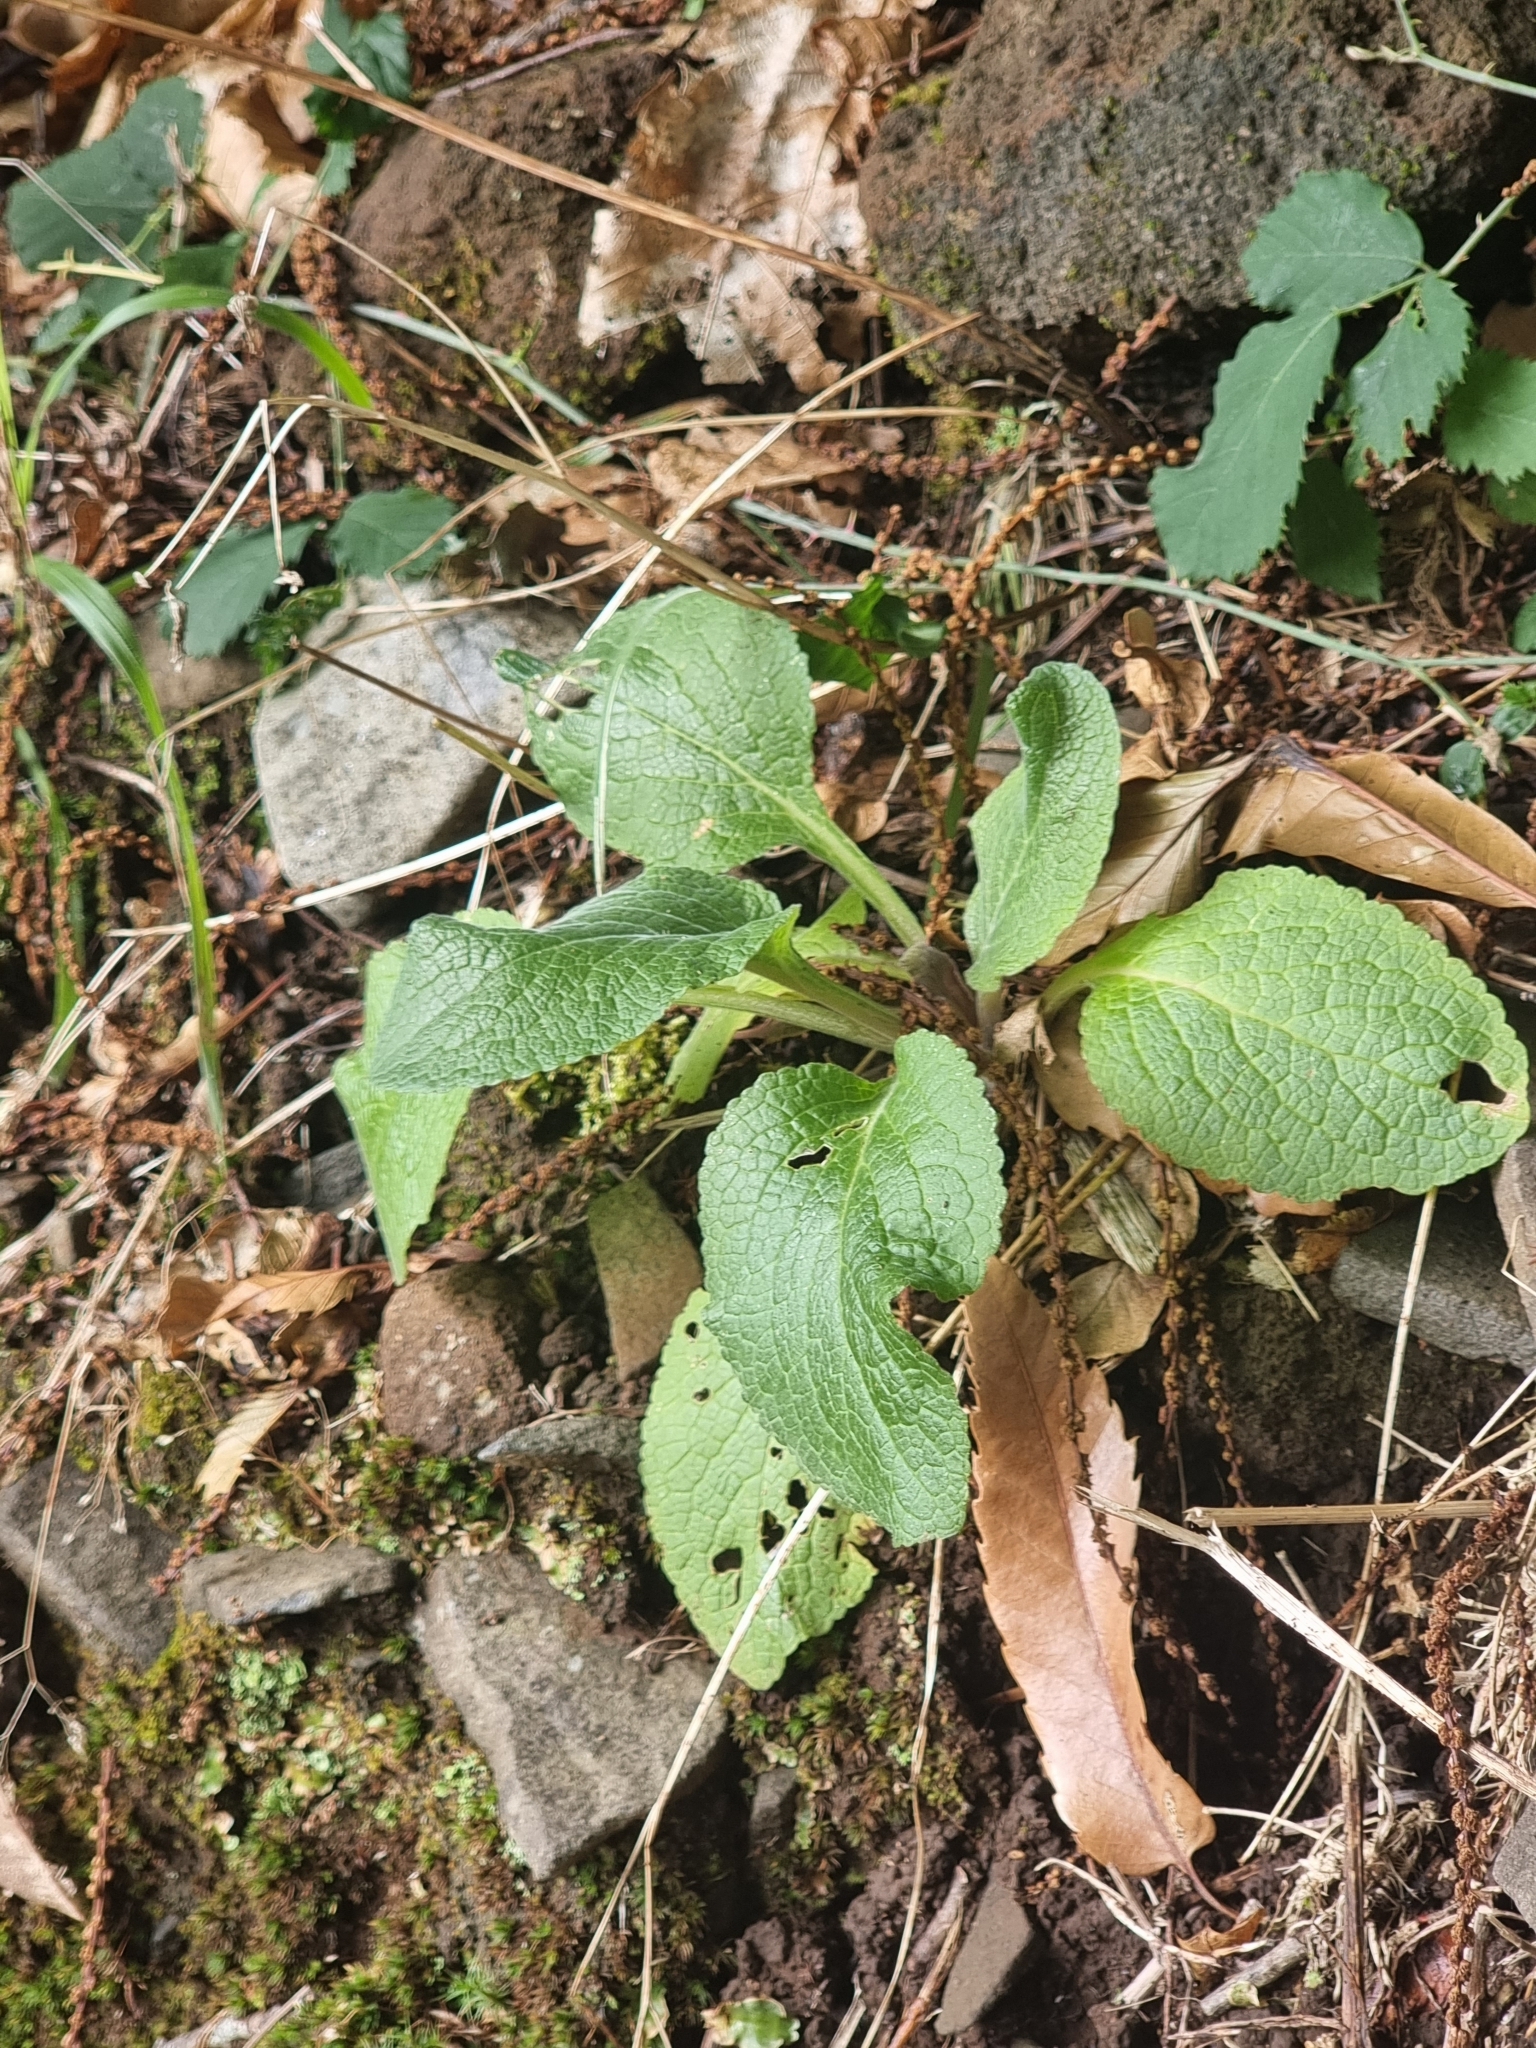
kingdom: Plantae
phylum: Tracheophyta
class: Magnoliopsida
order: Lamiales
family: Plantaginaceae
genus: Digitalis
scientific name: Digitalis purpurea
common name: Foxglove
